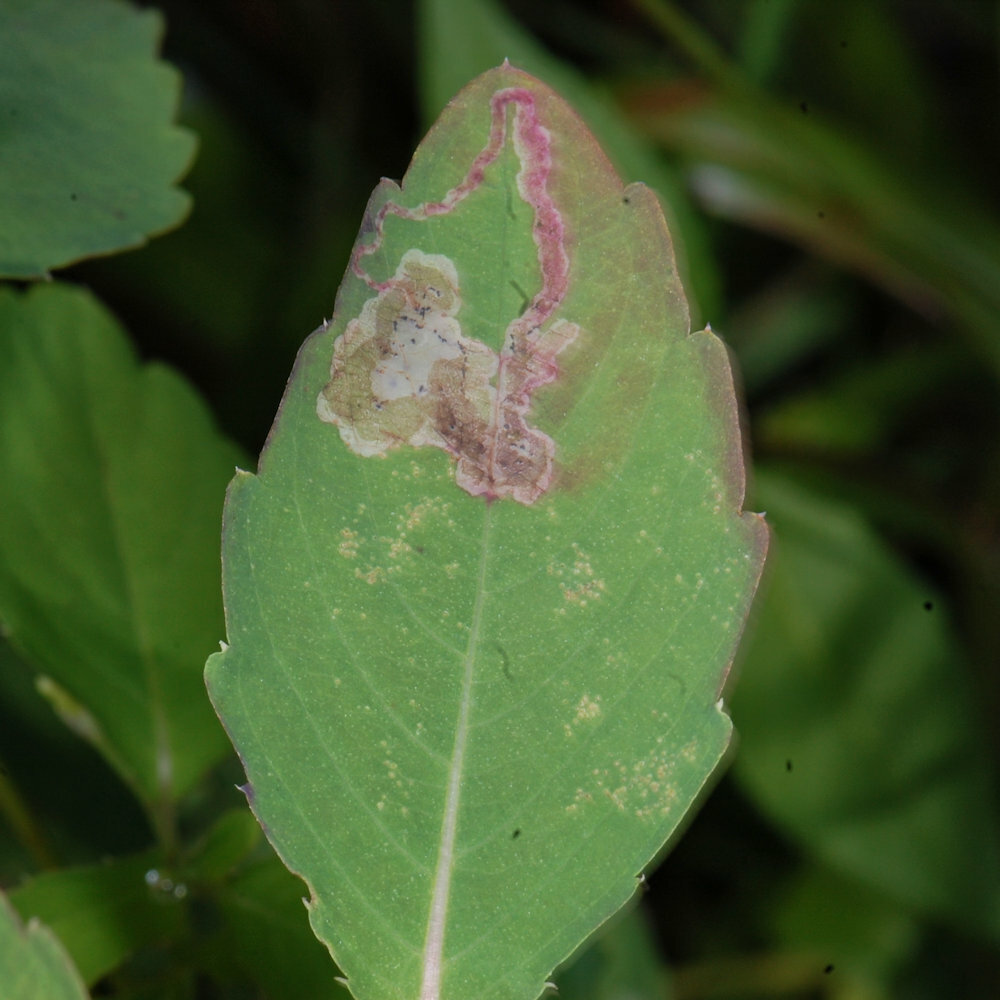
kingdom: Animalia
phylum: Arthropoda
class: Insecta
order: Diptera
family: Agromyzidae
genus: Phytoliriomyza
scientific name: Phytoliriomyza melampyga
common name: Jewelweed leaf-miner fly
